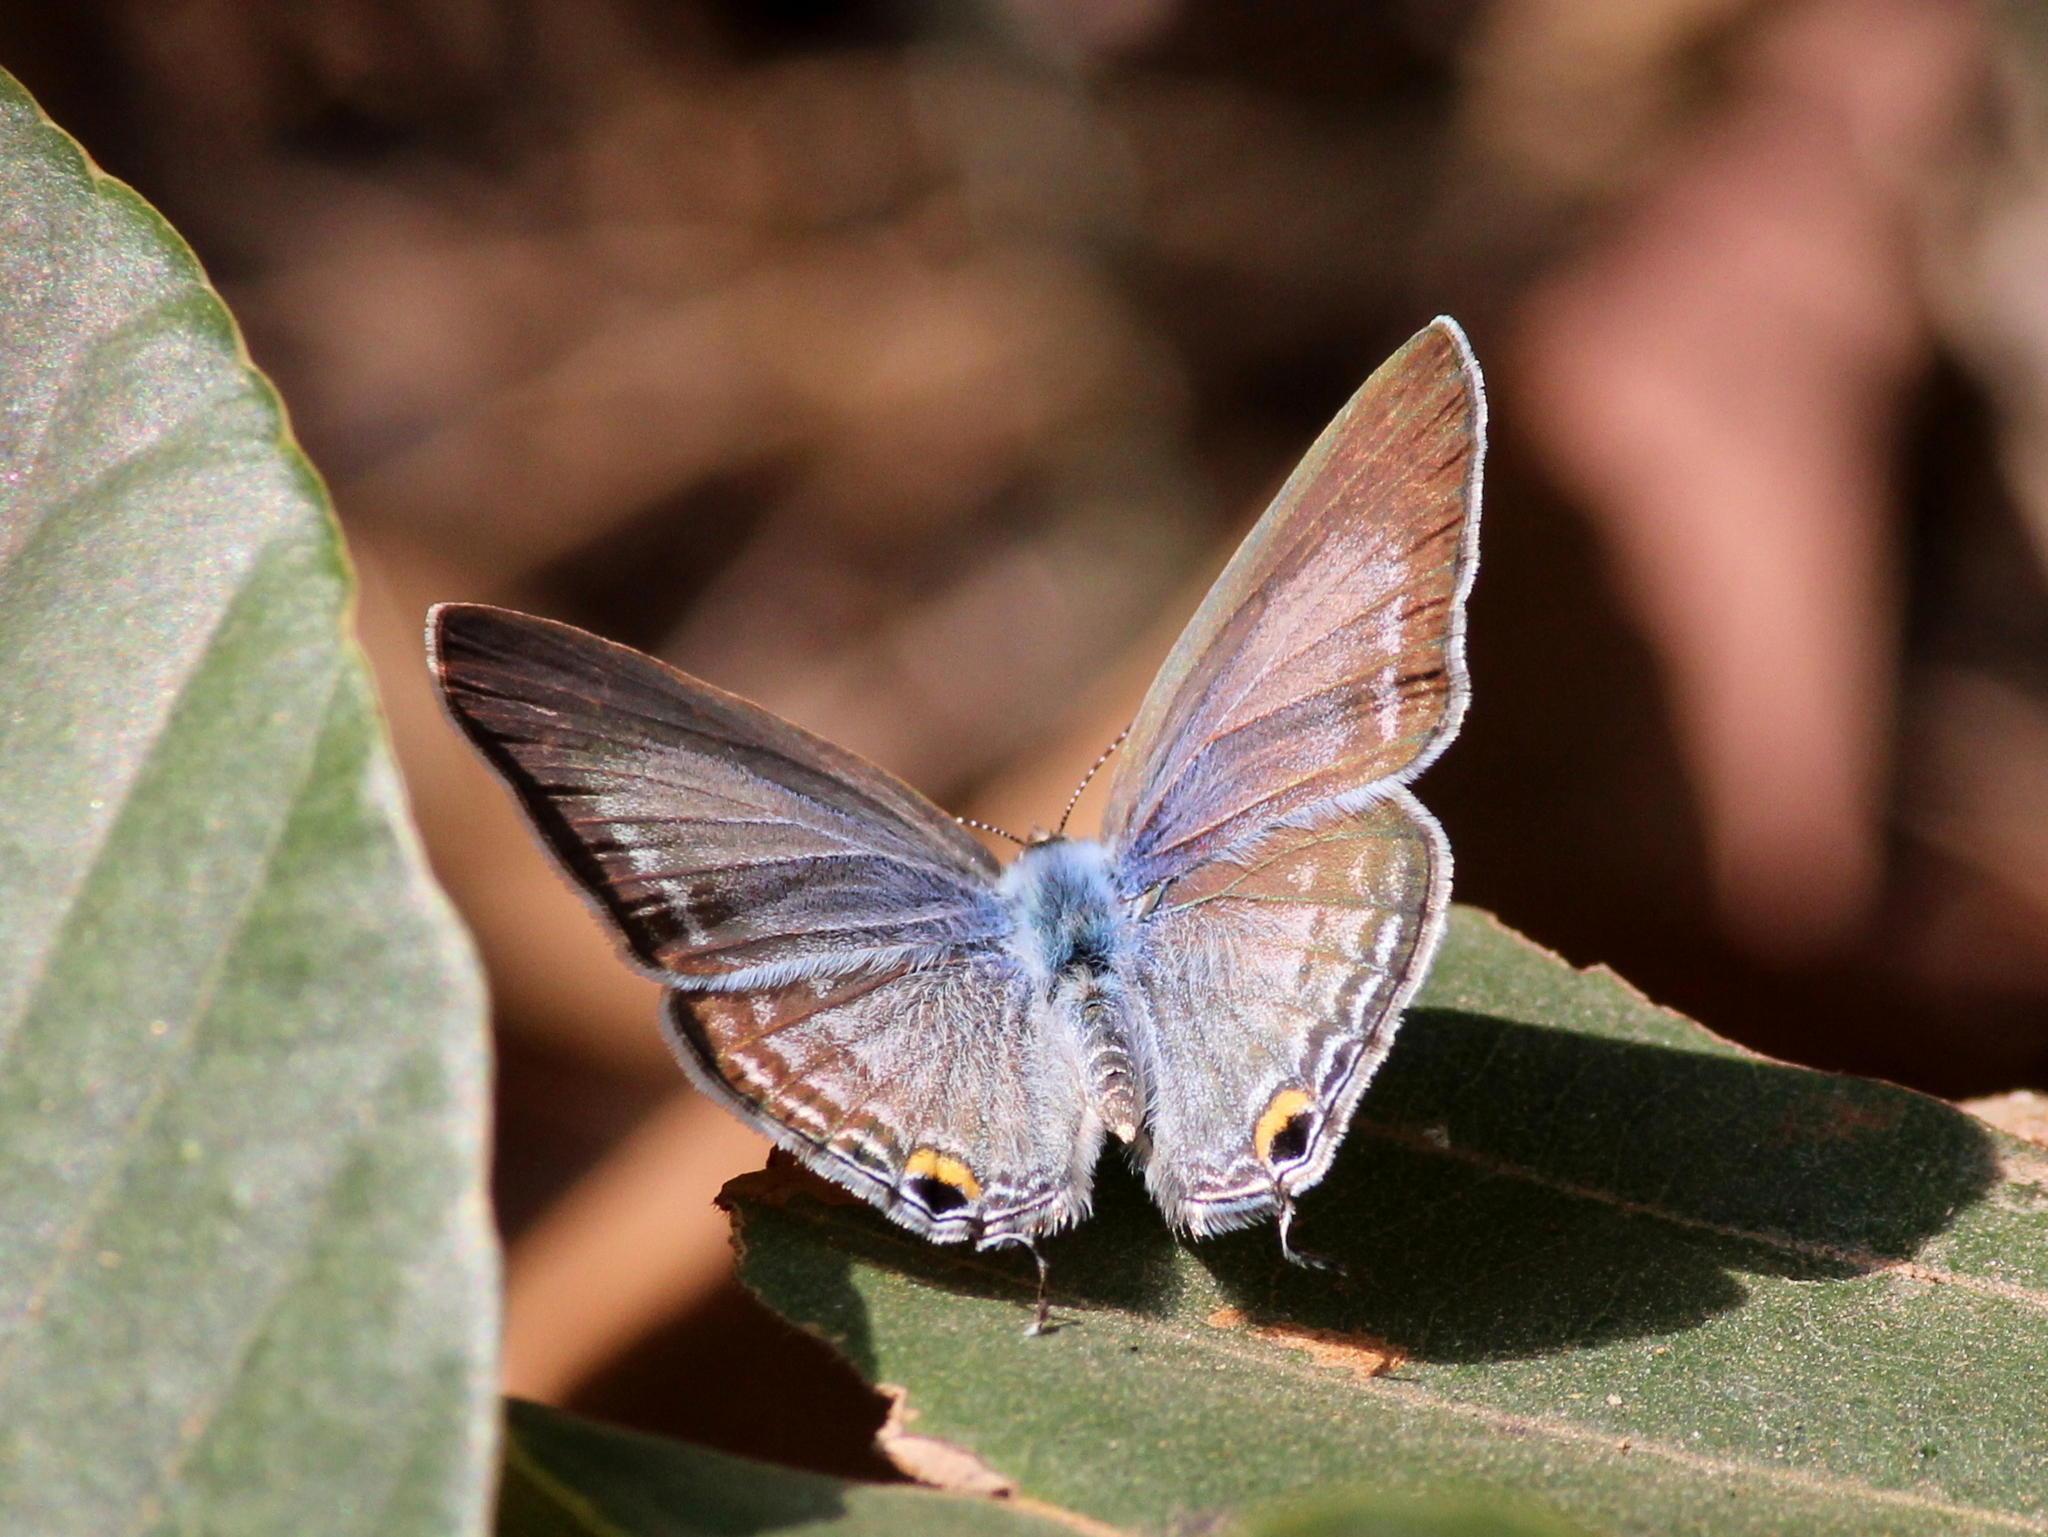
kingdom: Animalia
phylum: Arthropoda
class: Insecta
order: Lepidoptera
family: Lycaenidae
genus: Catochrysops
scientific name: Catochrysops strabo
